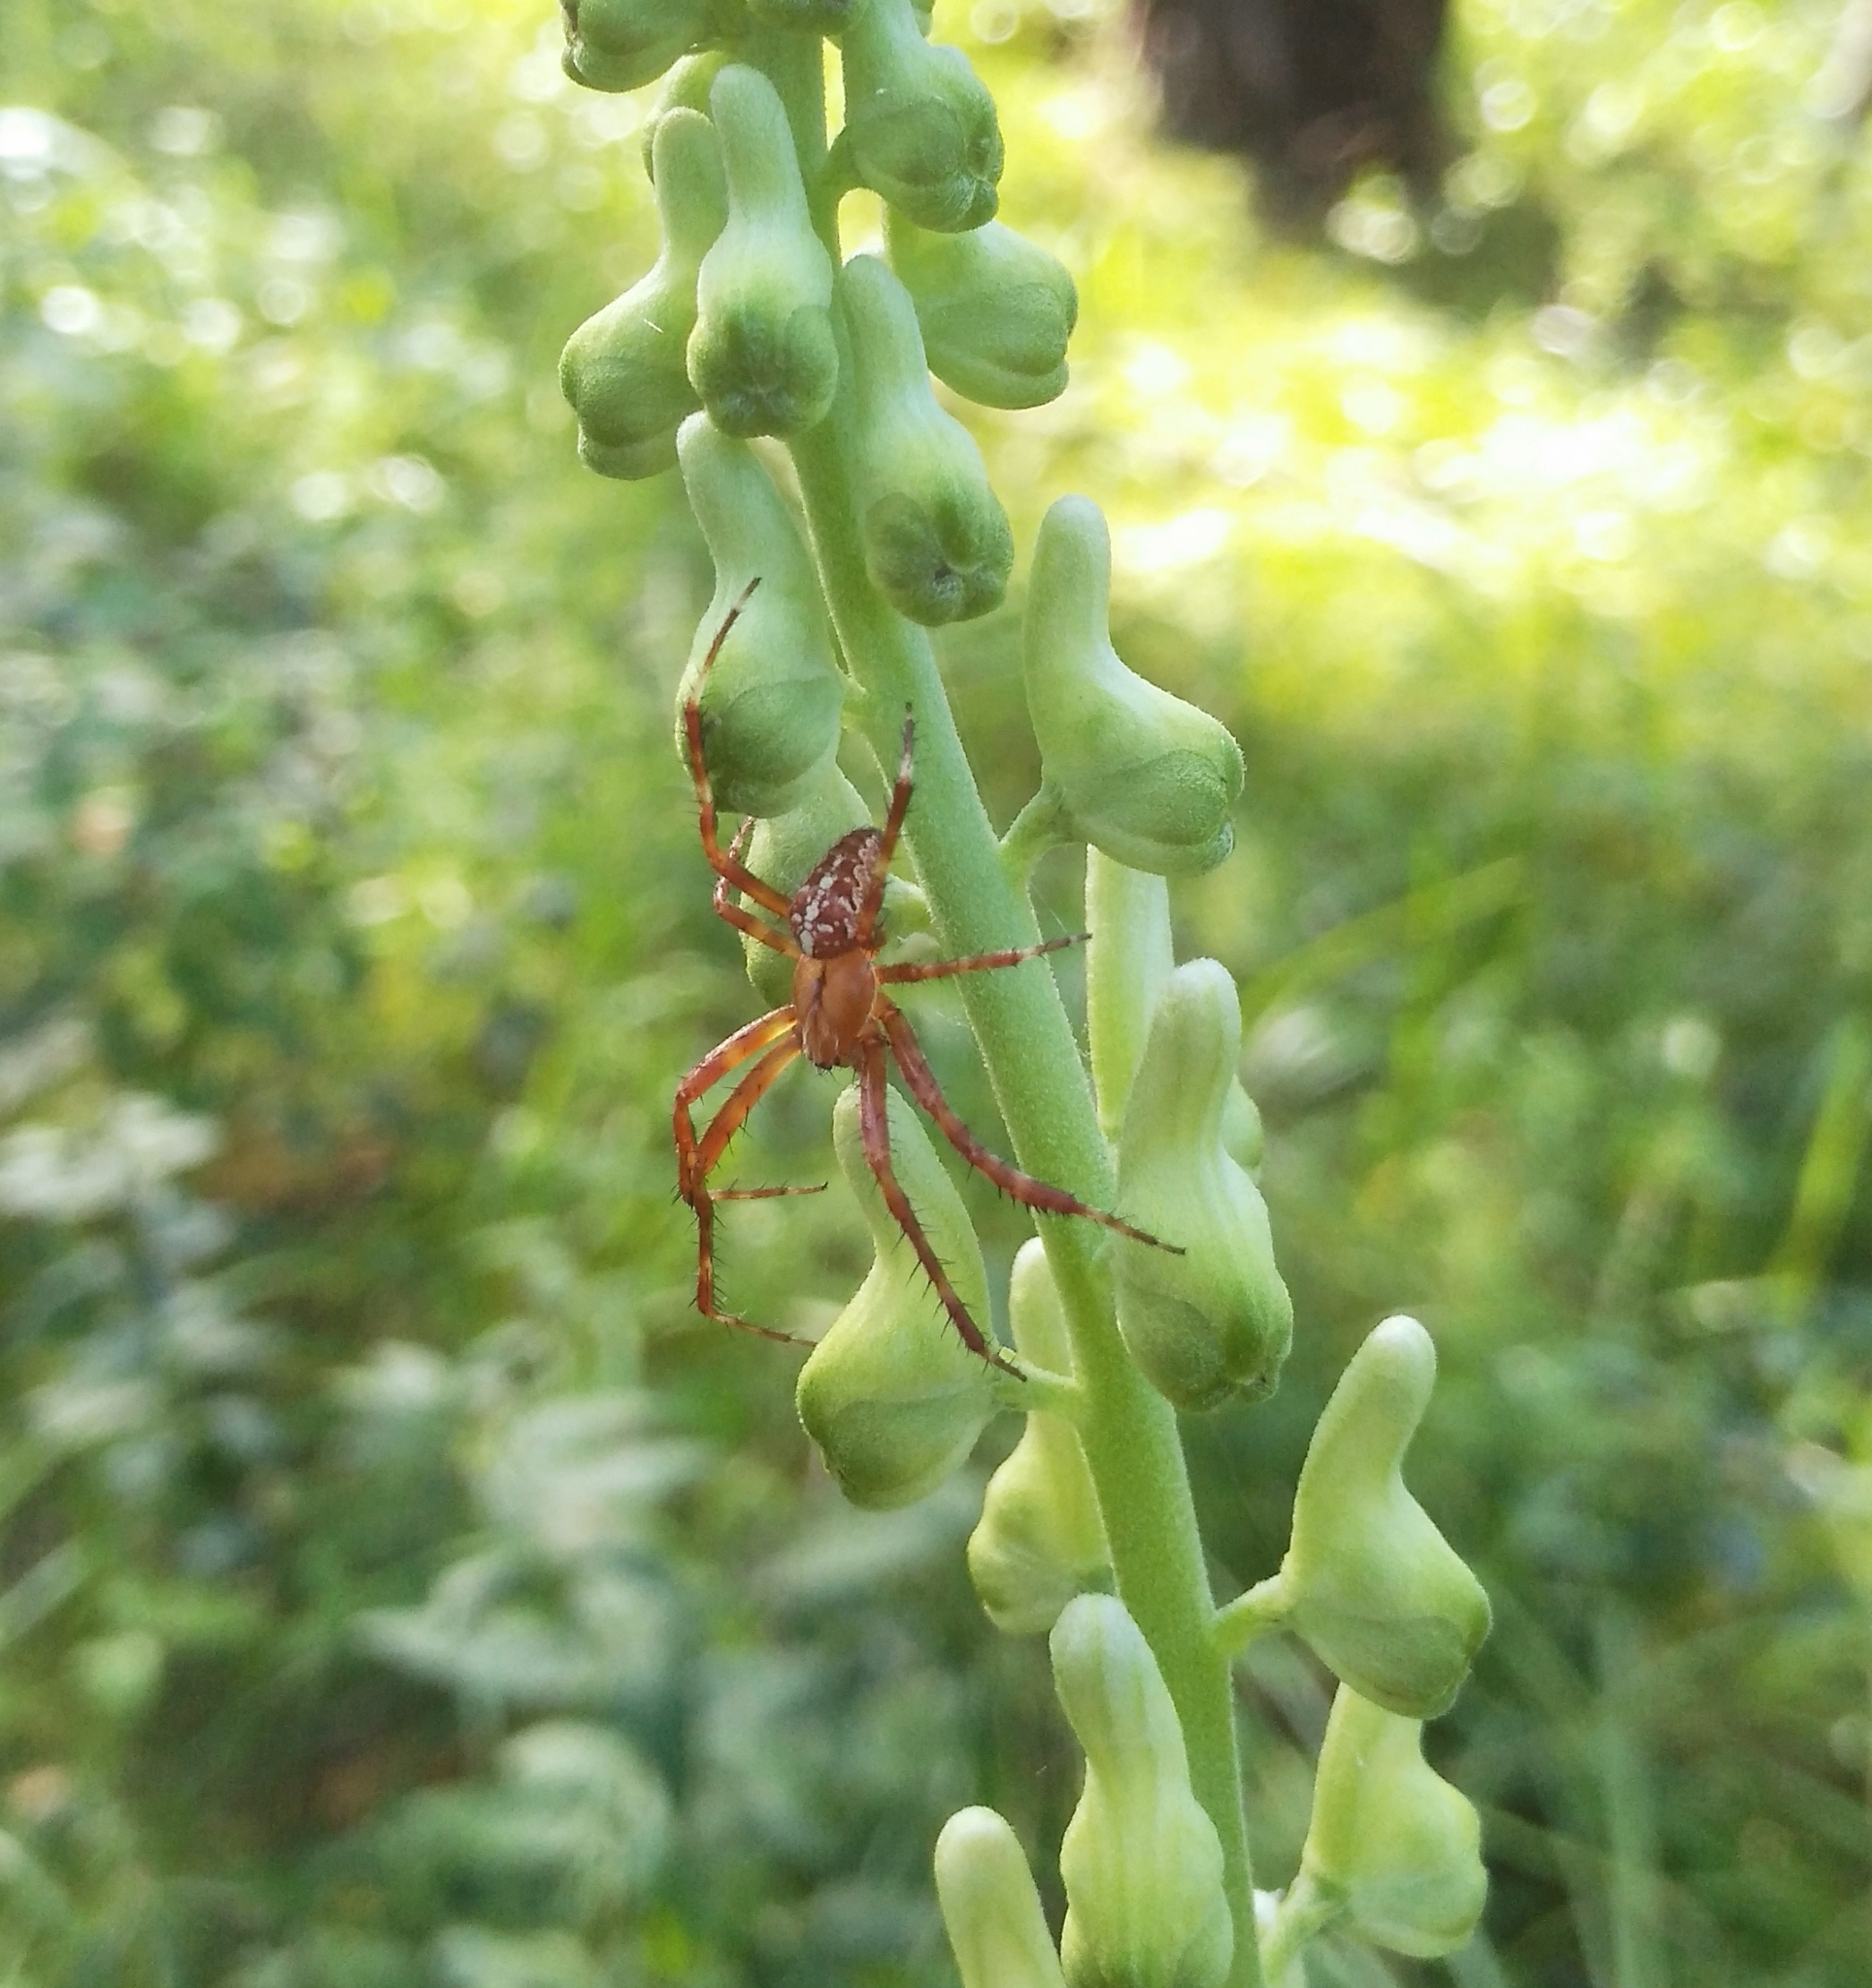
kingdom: Animalia
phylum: Arthropoda
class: Arachnida
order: Araneae
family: Araneidae
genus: Araneus
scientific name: Araneus diadematus
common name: Cross orbweaver
